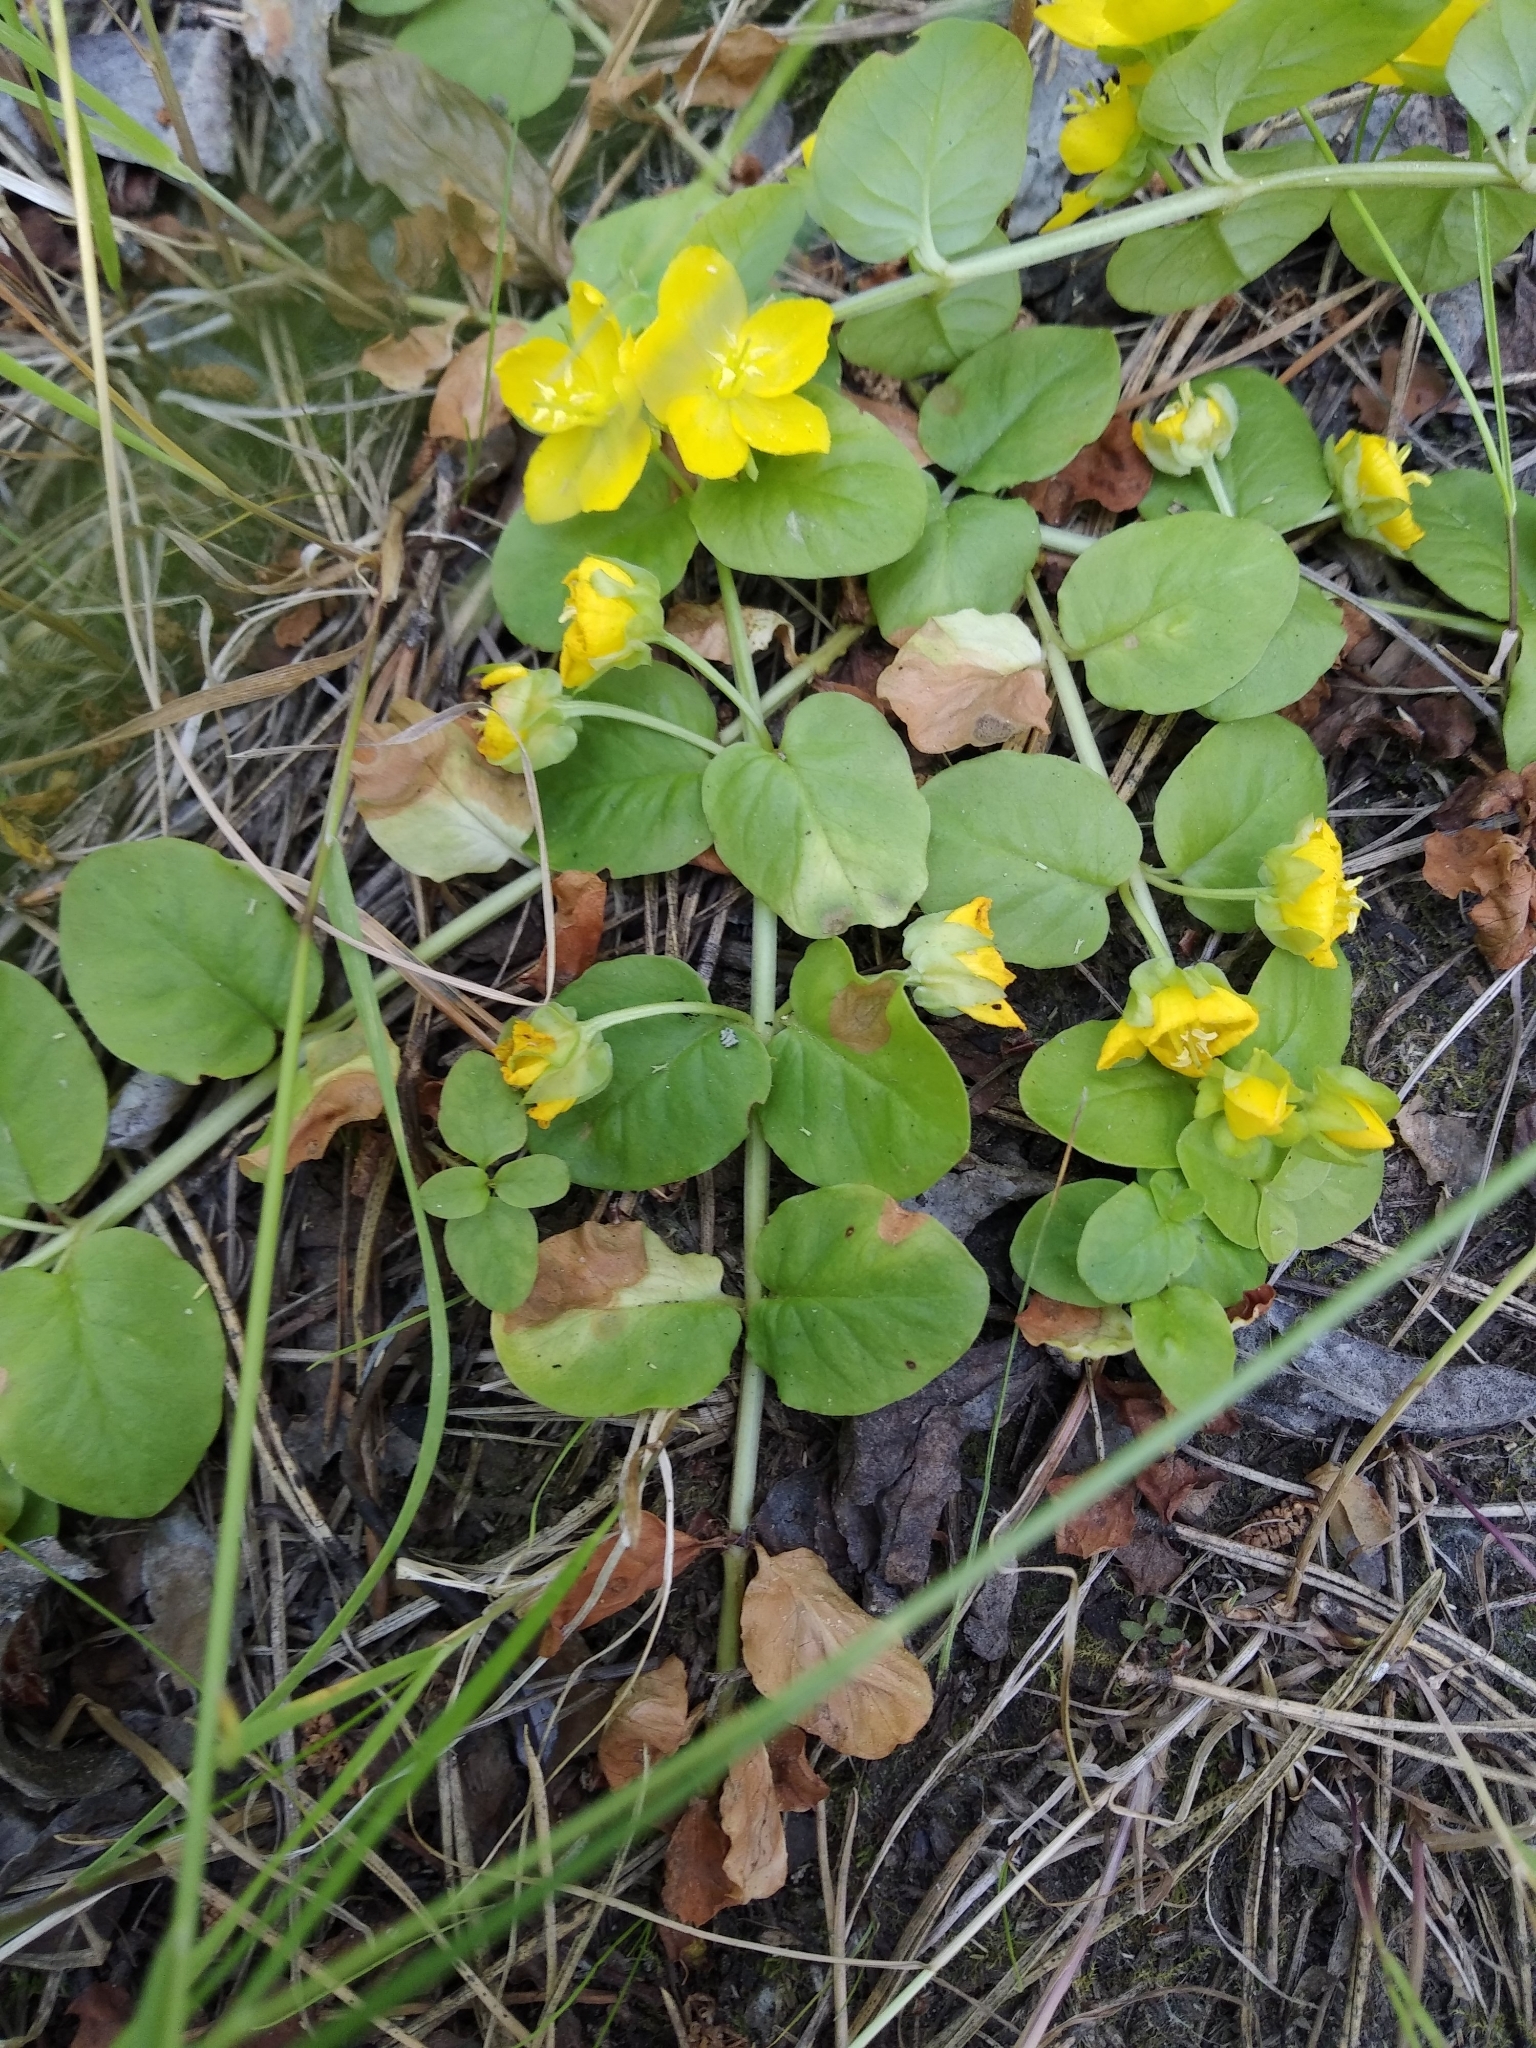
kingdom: Plantae
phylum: Tracheophyta
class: Magnoliopsida
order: Ericales
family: Primulaceae
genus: Lysimachia
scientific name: Lysimachia nummularia
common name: Moneywort
